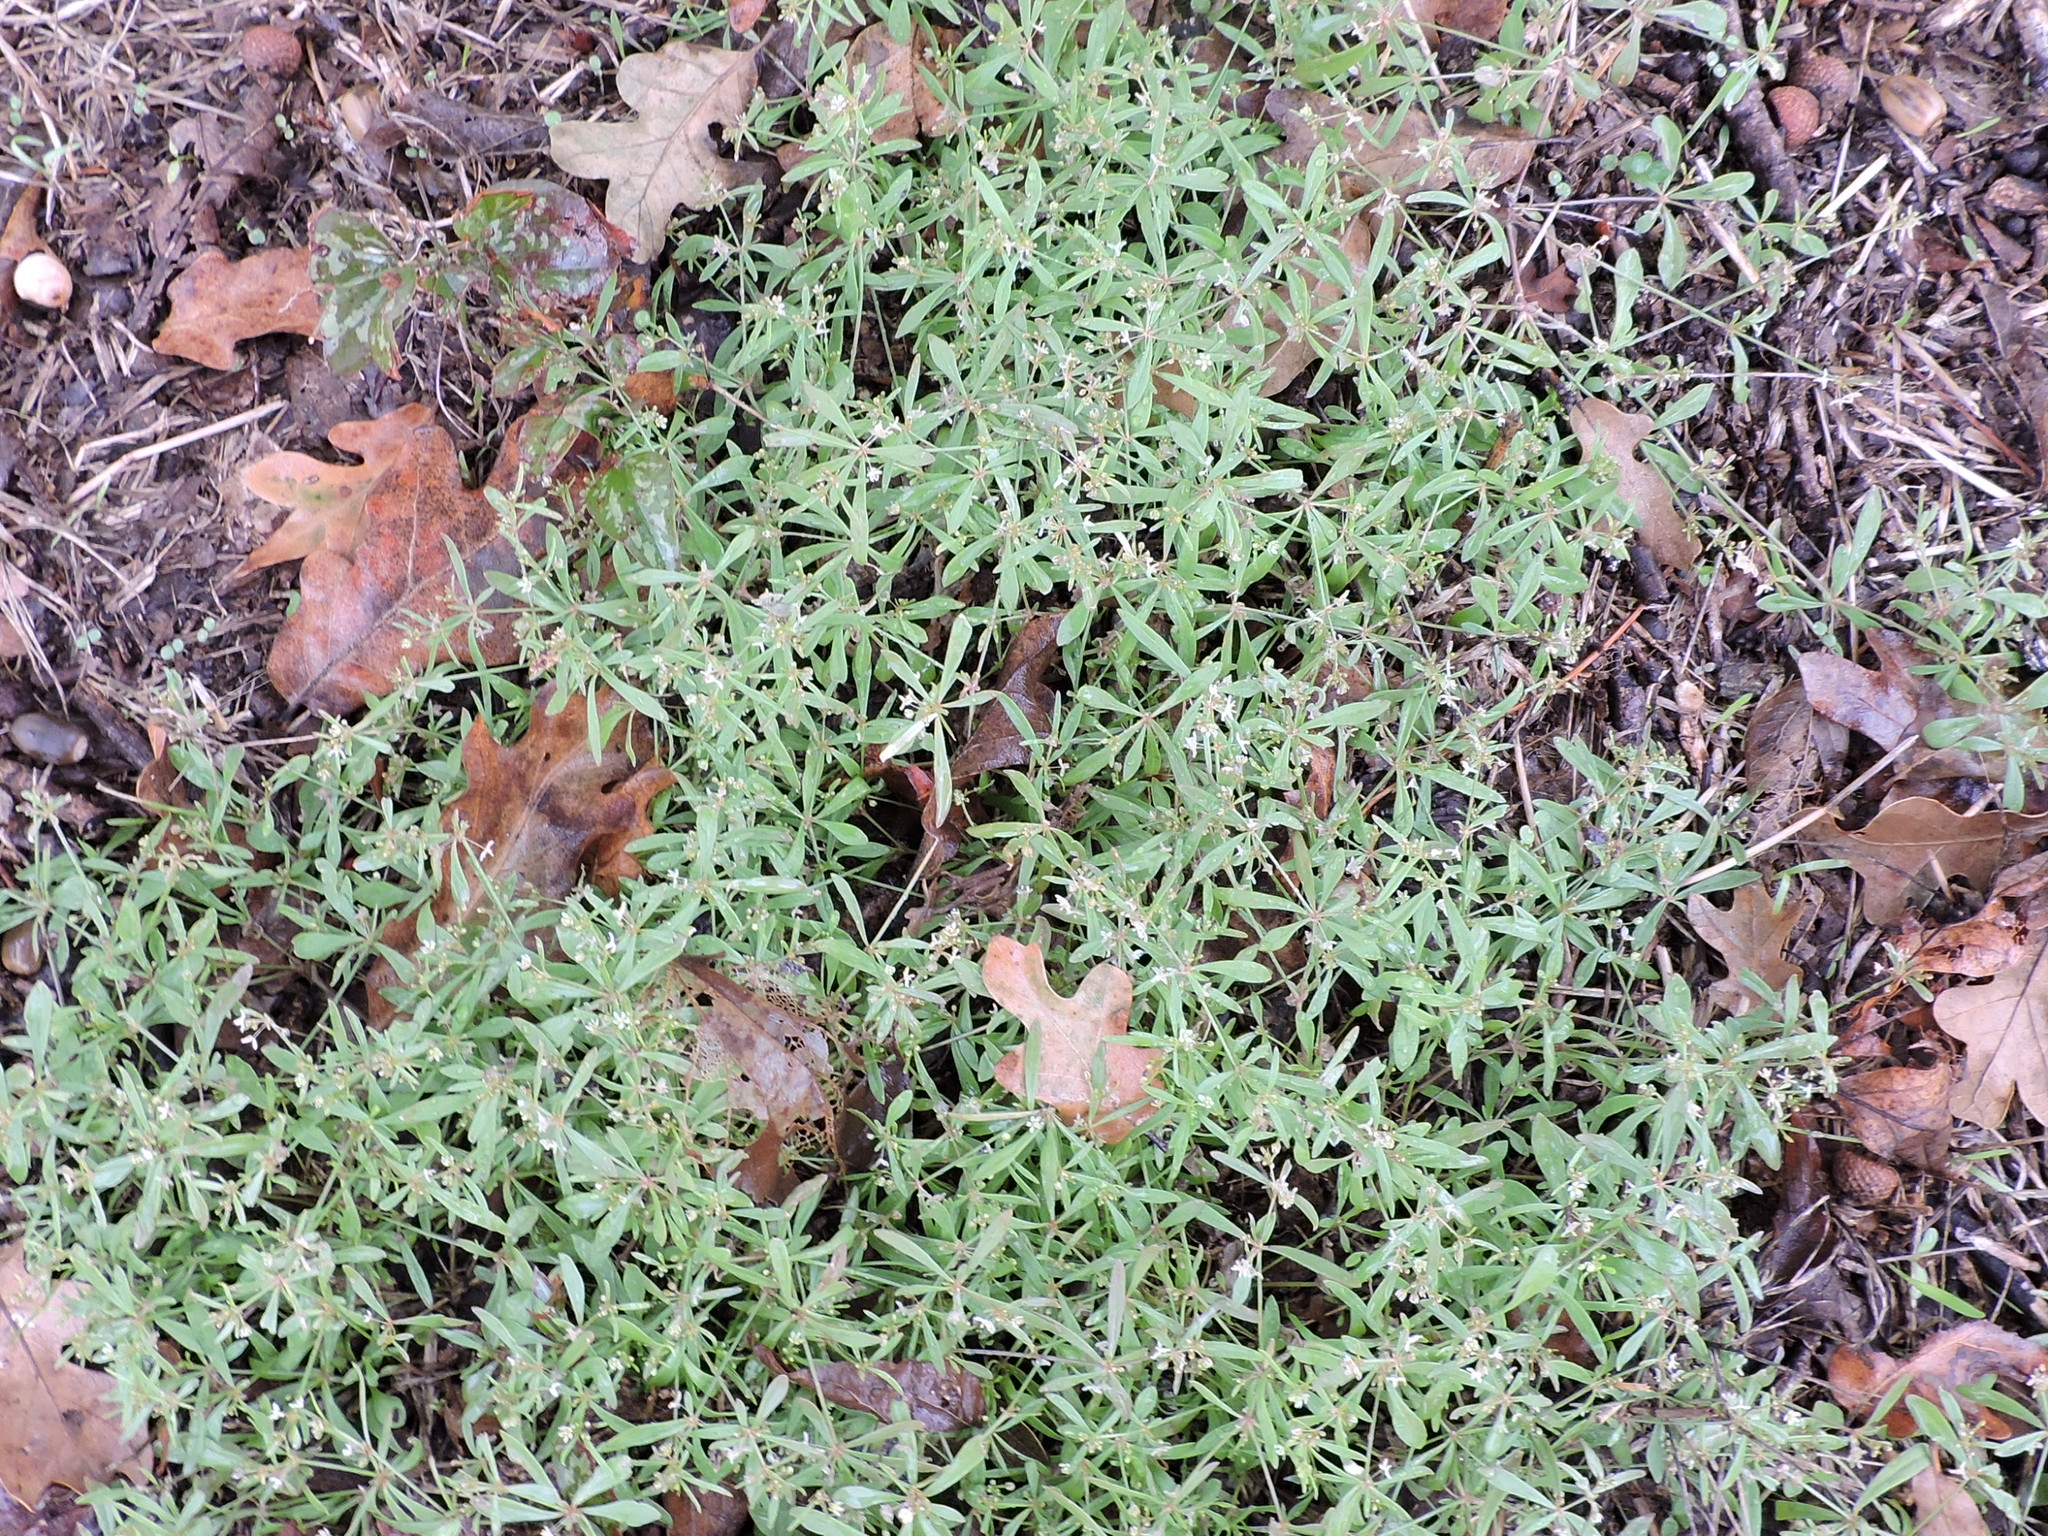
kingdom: Plantae
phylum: Tracheophyta
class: Magnoliopsida
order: Caryophyllales
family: Molluginaceae
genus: Mollugo
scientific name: Mollugo verticillata
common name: Green carpetweed
